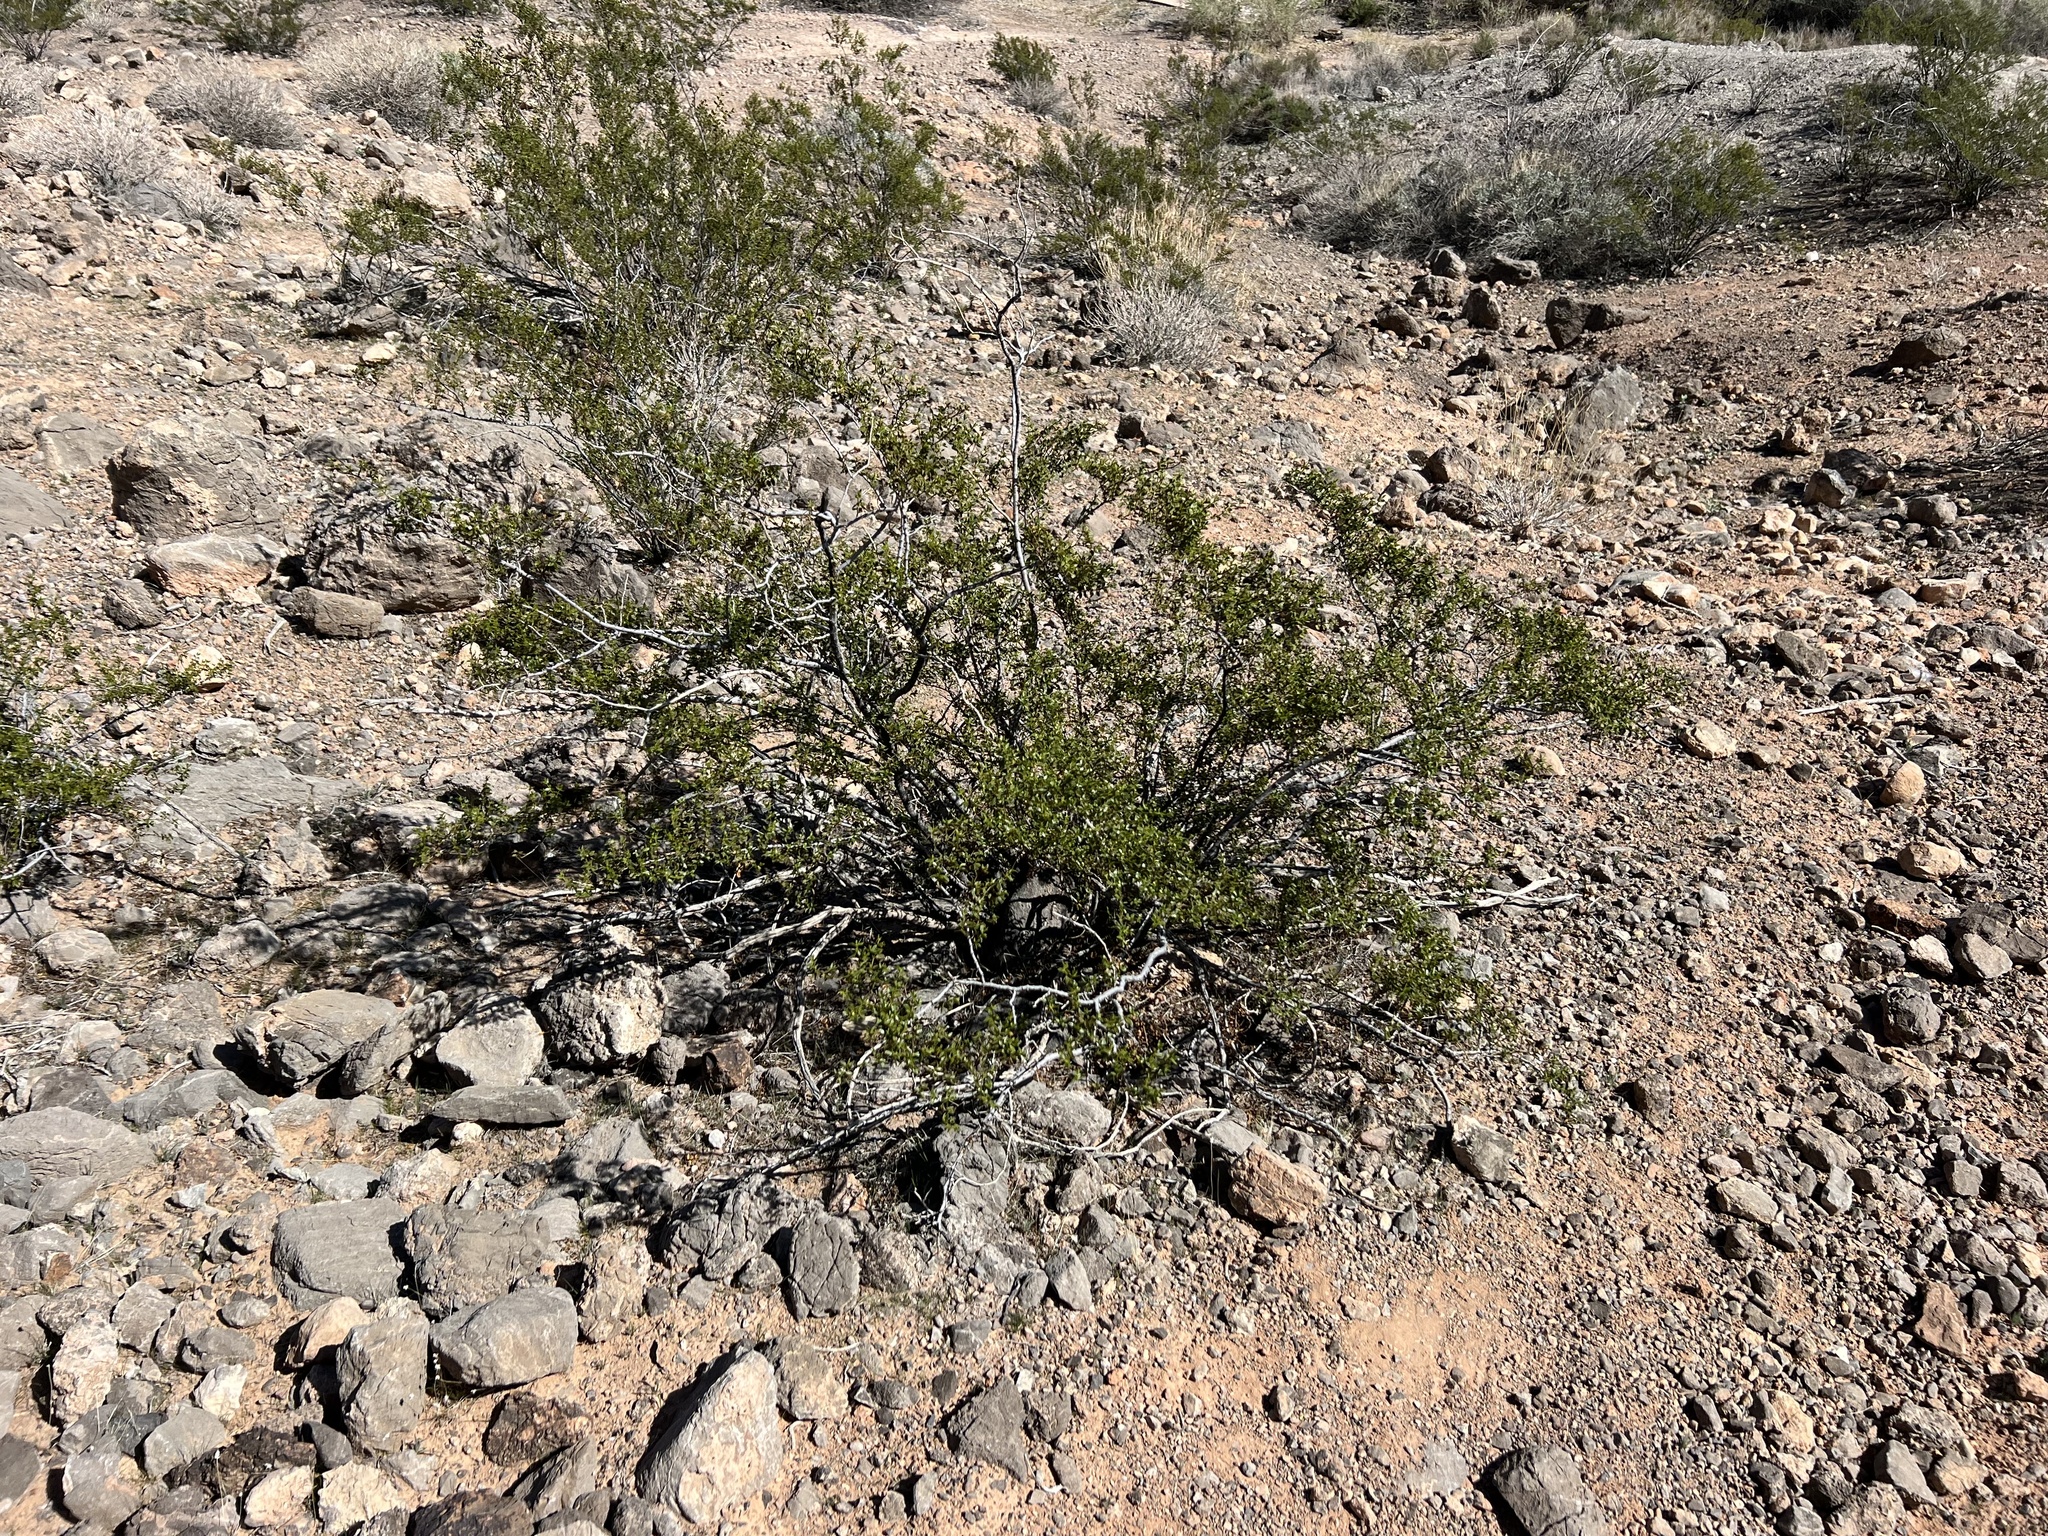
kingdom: Plantae
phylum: Tracheophyta
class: Magnoliopsida
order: Zygophyllales
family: Zygophyllaceae
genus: Larrea
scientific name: Larrea tridentata
